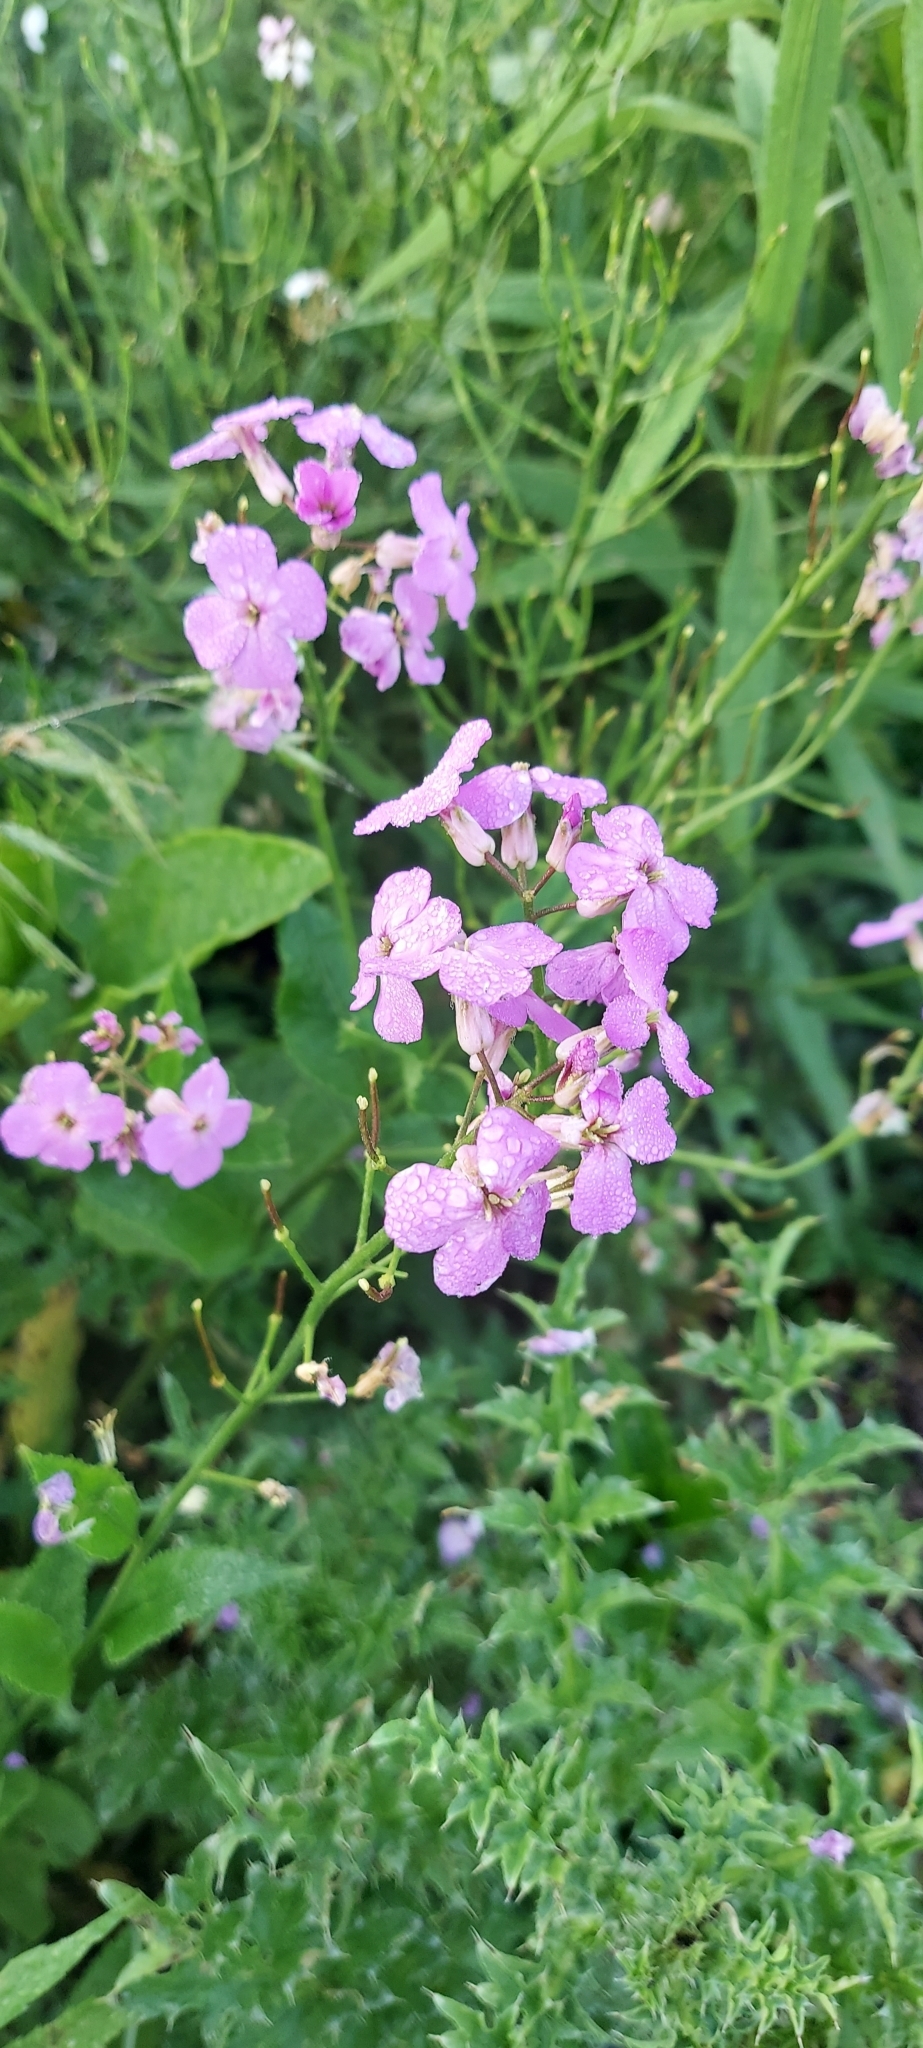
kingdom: Plantae
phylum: Tracheophyta
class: Magnoliopsida
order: Brassicales
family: Brassicaceae
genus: Hesperis
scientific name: Hesperis matronalis
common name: Dame's-violet
